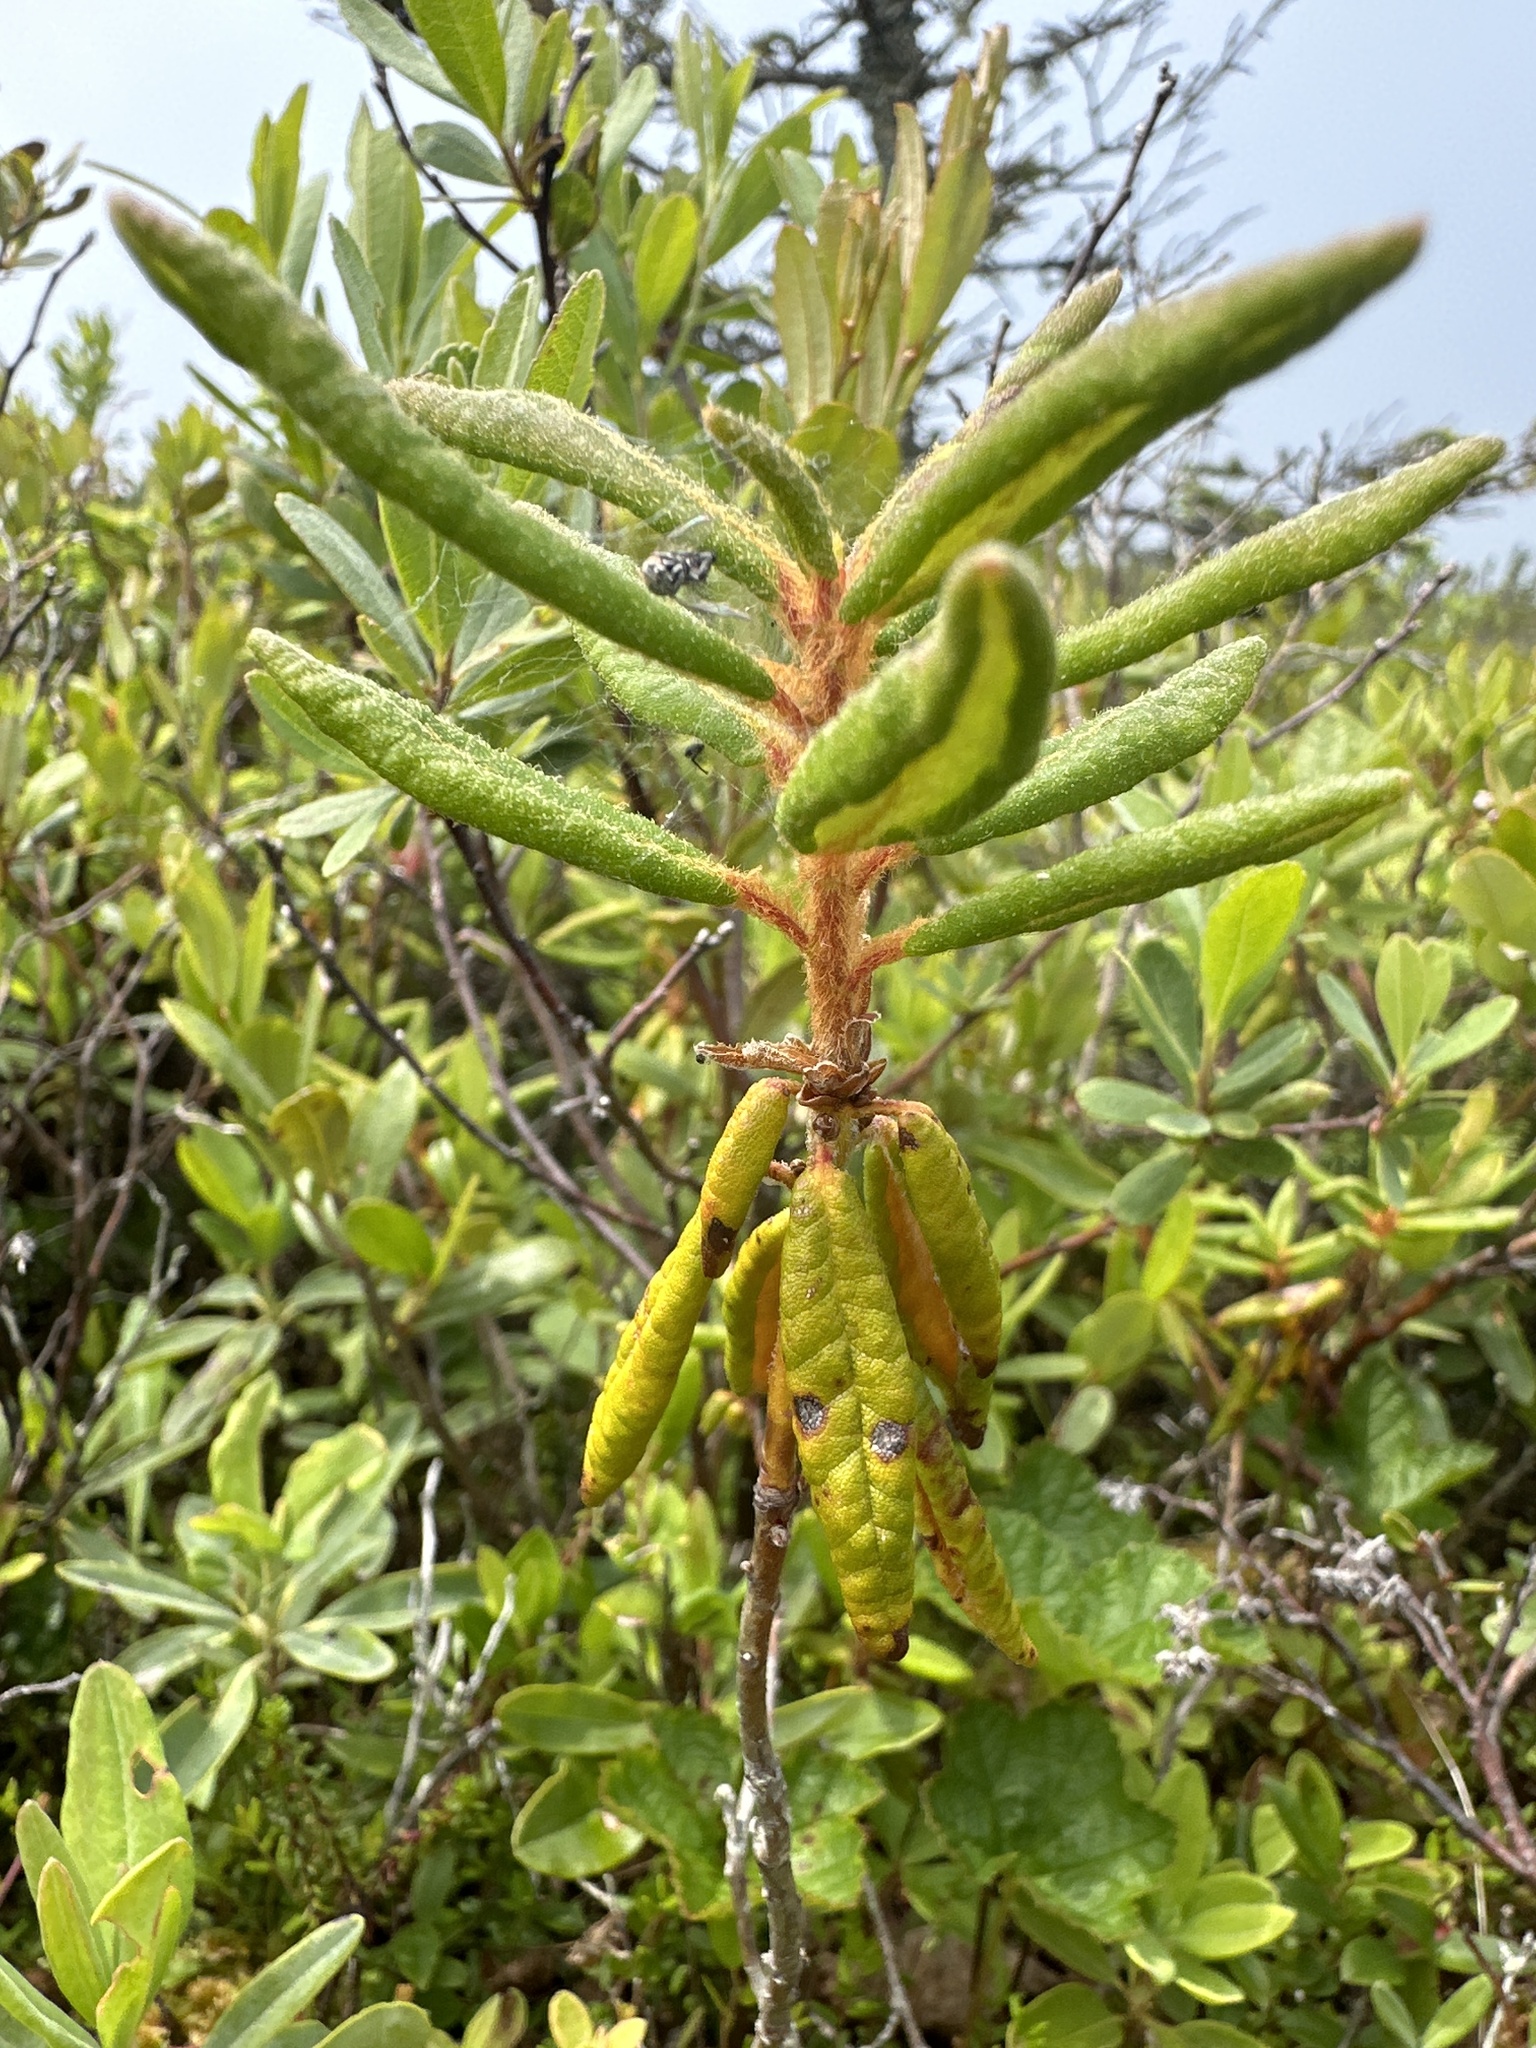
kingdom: Plantae
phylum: Tracheophyta
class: Magnoliopsida
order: Ericales
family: Ericaceae
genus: Rhododendron
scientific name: Rhododendron groenlandicum
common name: Bog labrador tea
